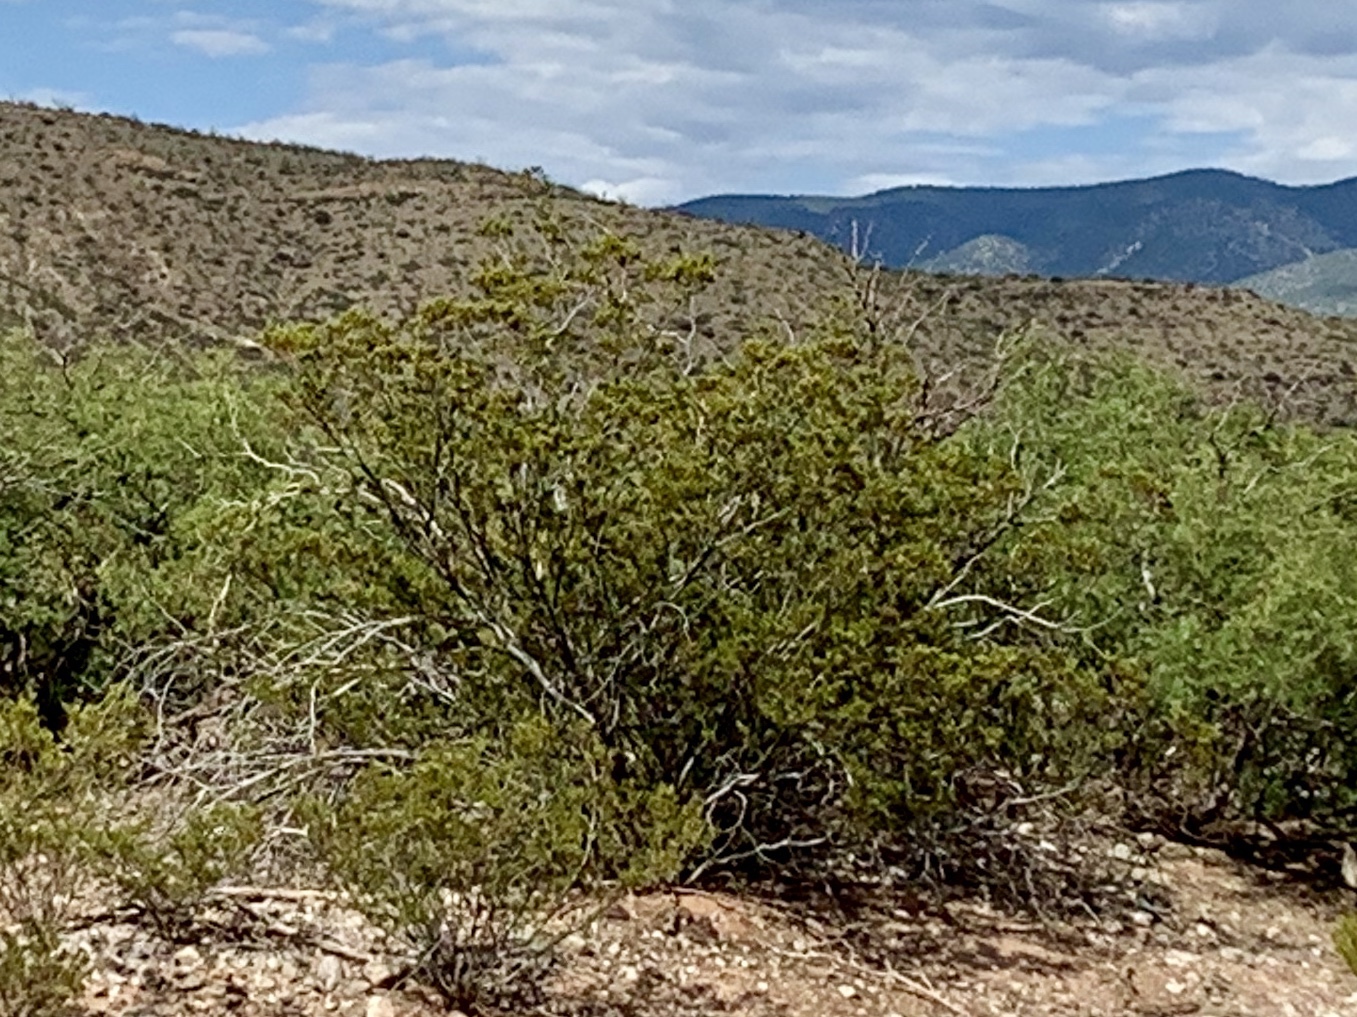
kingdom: Plantae
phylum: Tracheophyta
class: Magnoliopsida
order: Zygophyllales
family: Zygophyllaceae
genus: Larrea
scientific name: Larrea tridentata
